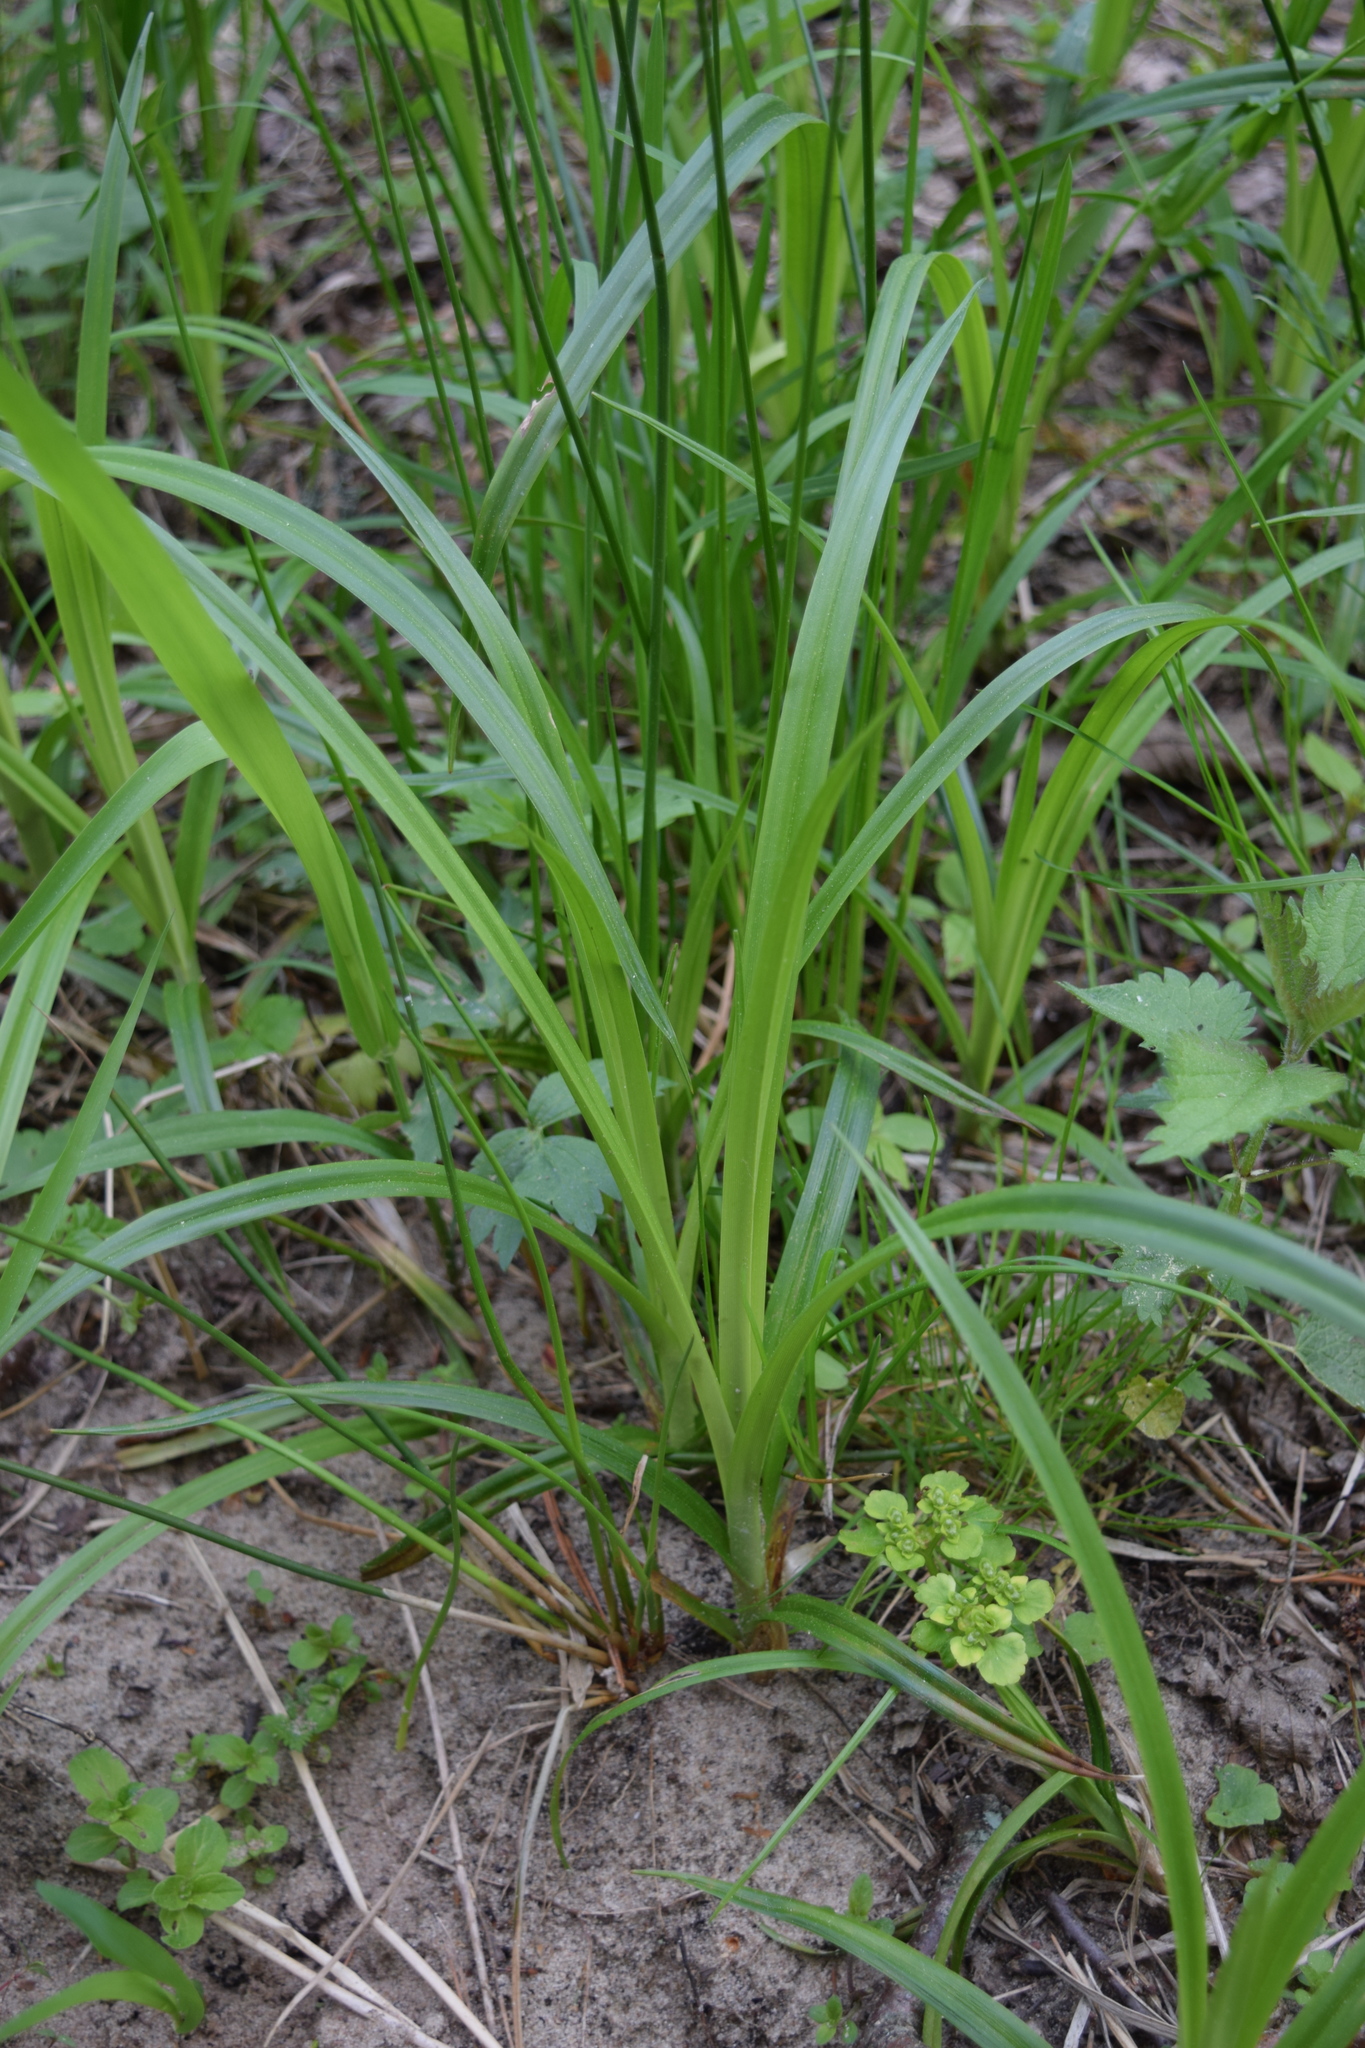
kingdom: Plantae
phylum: Tracheophyta
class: Liliopsida
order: Poales
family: Cyperaceae
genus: Scirpus
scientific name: Scirpus sylvaticus
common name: Wood club-rush
